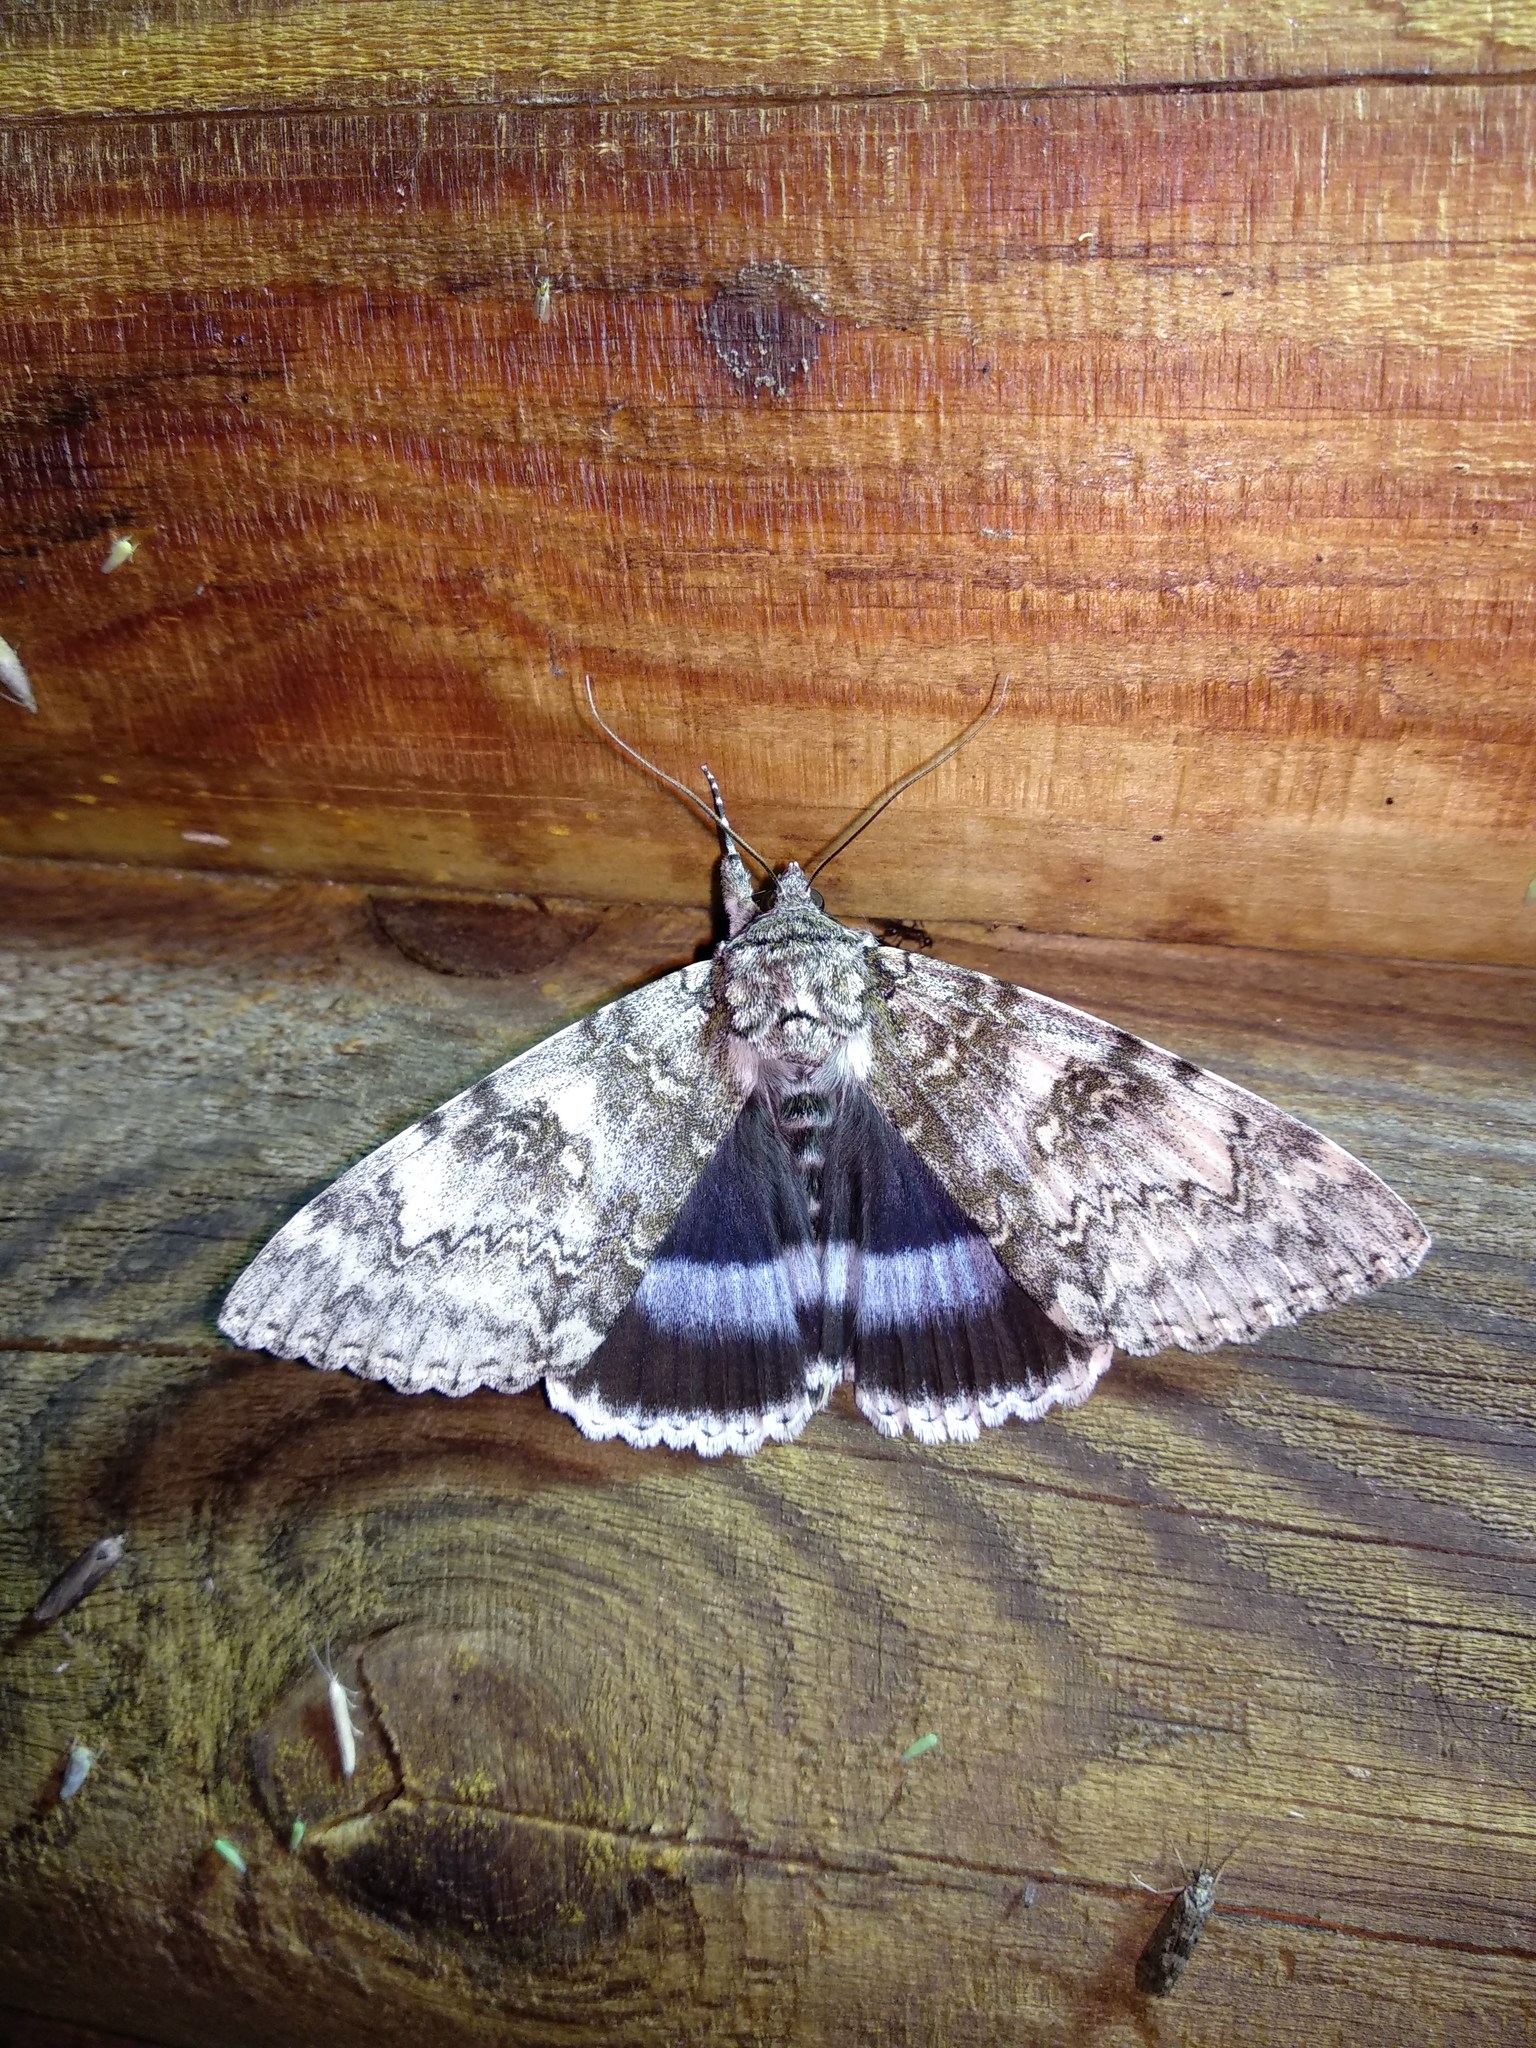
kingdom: Animalia
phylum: Arthropoda
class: Insecta
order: Lepidoptera
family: Erebidae
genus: Catocala
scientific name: Catocala fraxini
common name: Clifden nonpareil
